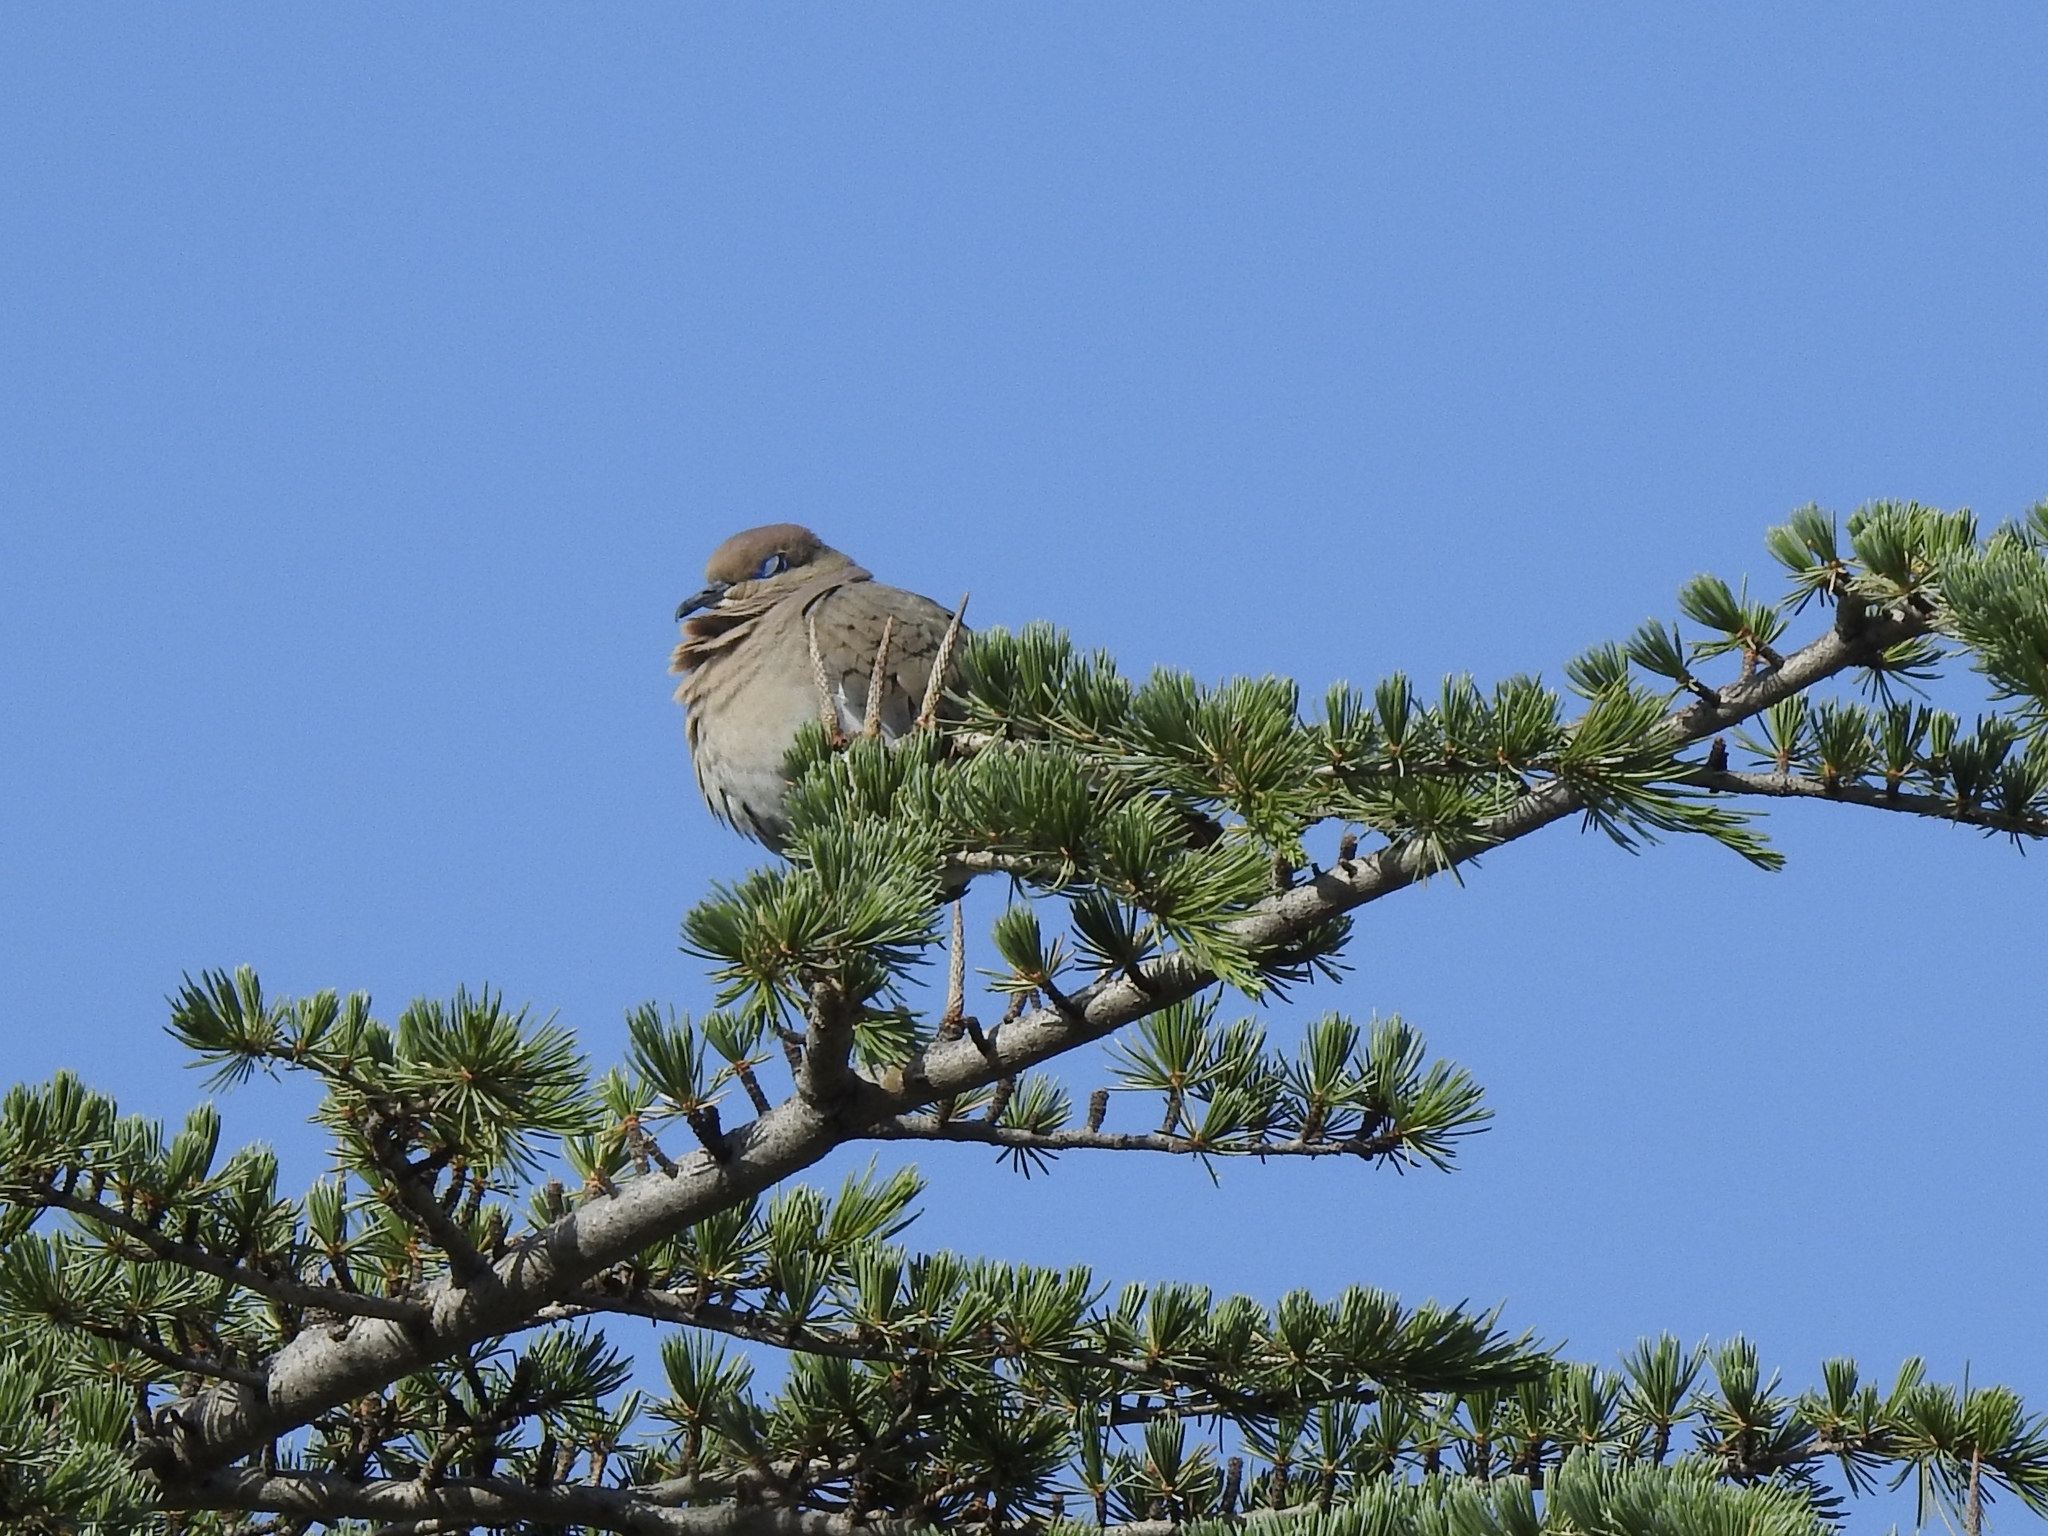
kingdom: Animalia
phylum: Chordata
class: Aves
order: Columbiformes
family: Columbidae
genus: Zenaida
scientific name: Zenaida asiatica
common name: White-winged dove
